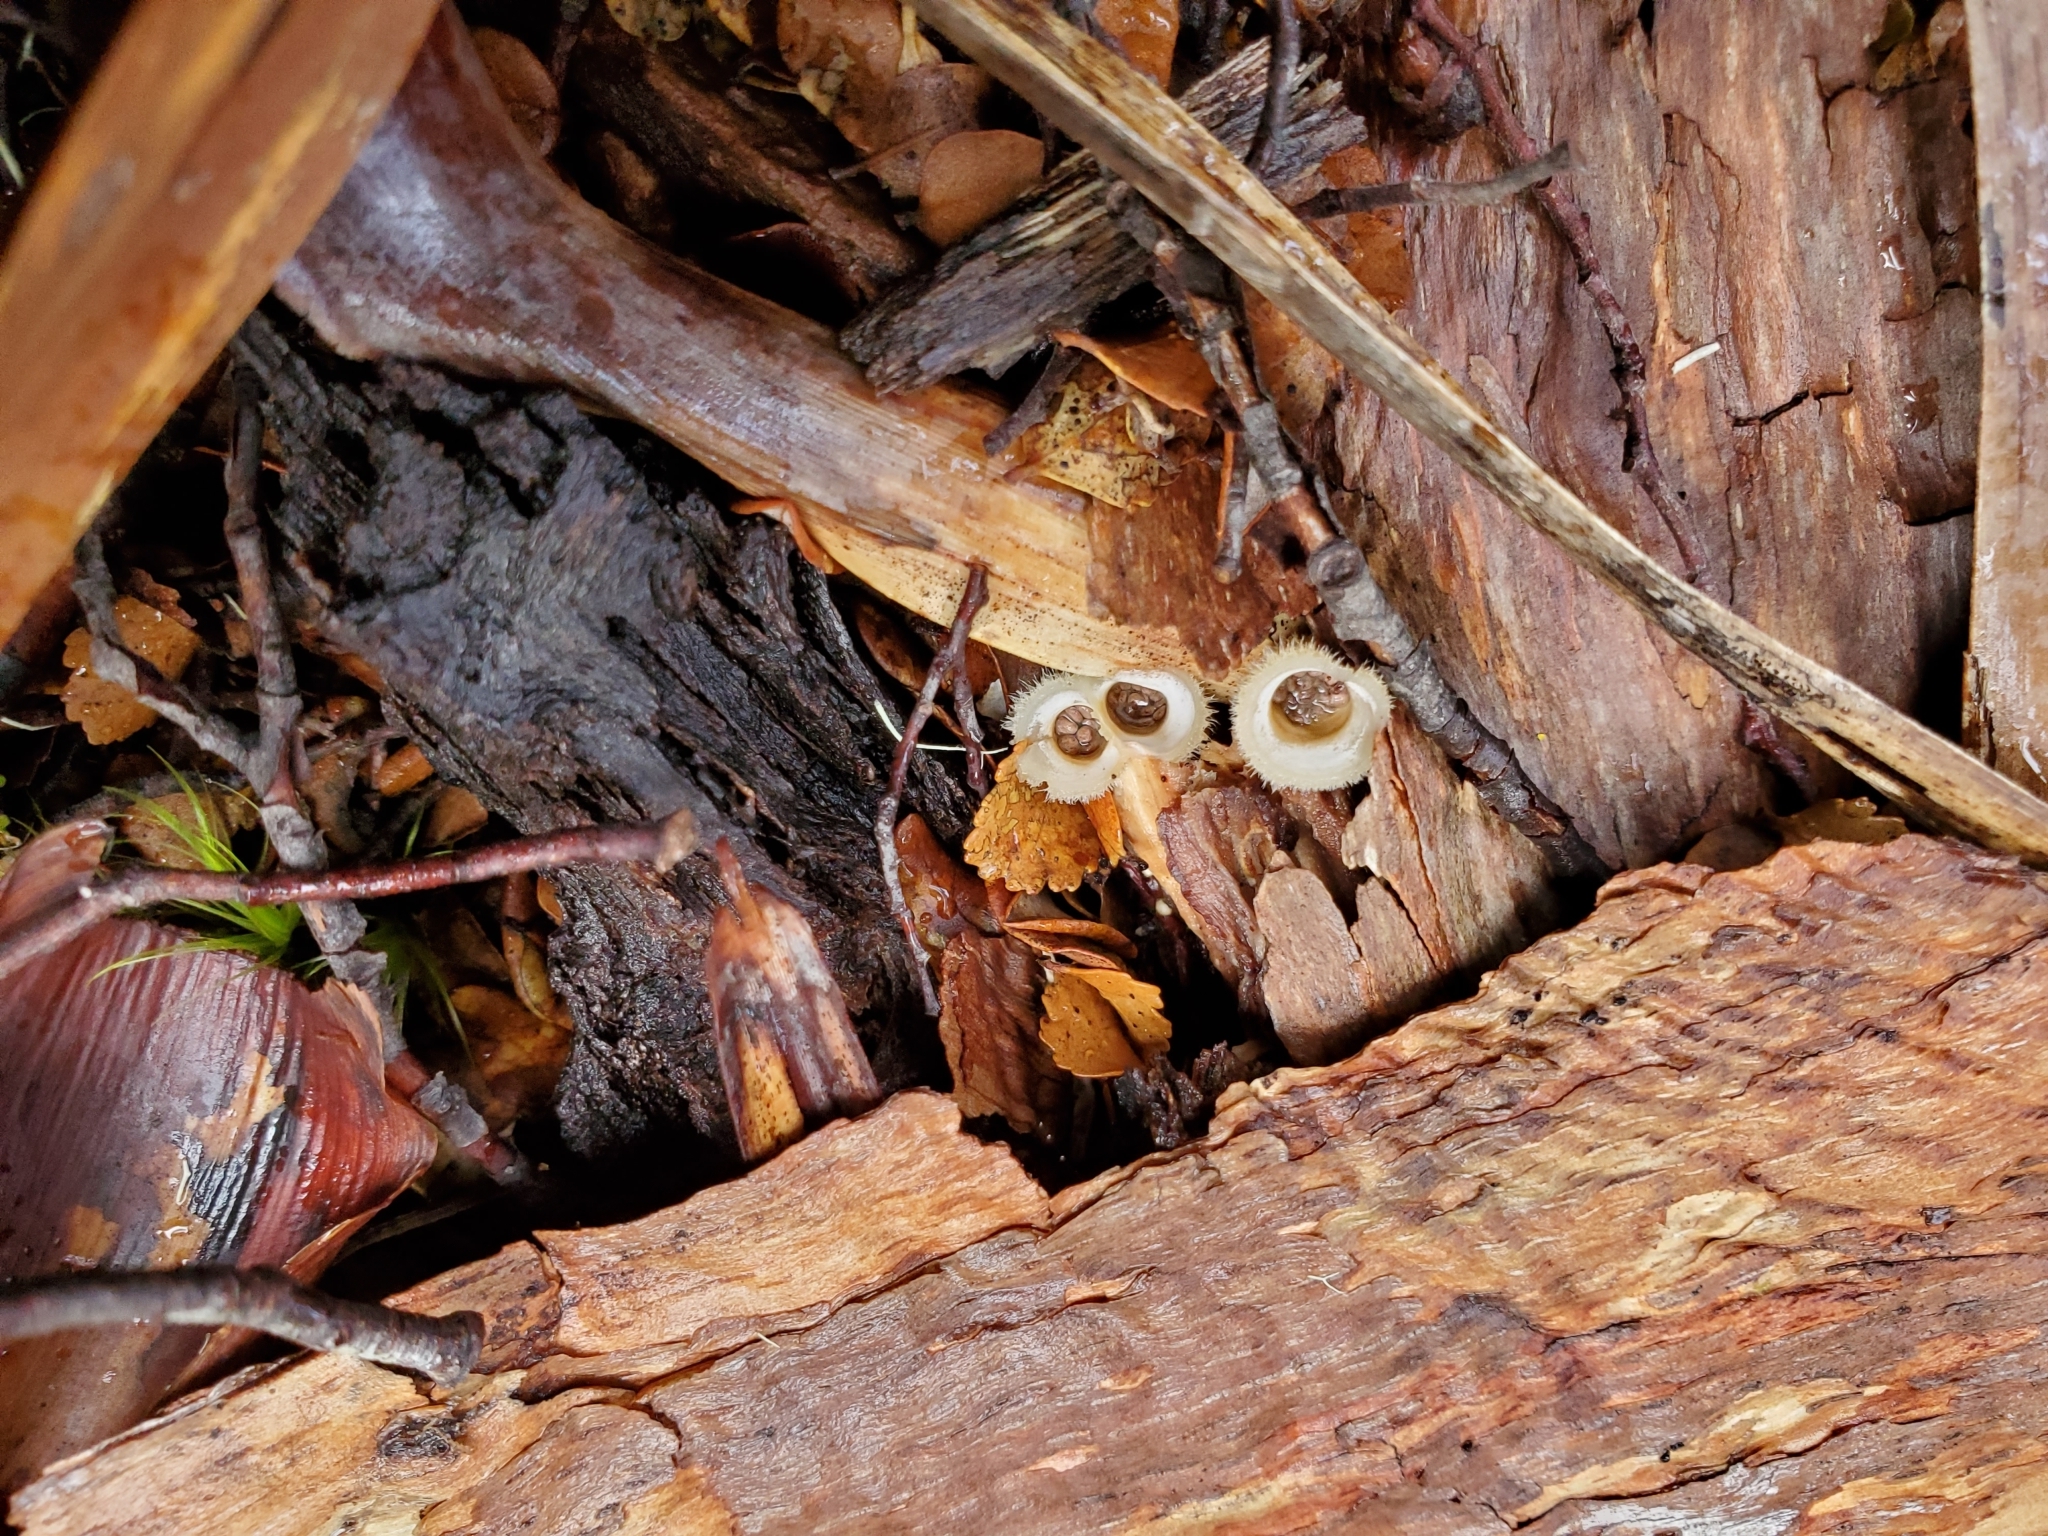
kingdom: Fungi
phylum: Basidiomycota
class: Agaricomycetes
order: Agaricales
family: Agaricaceae
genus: Nidula
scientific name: Nidula niveotomentosa
